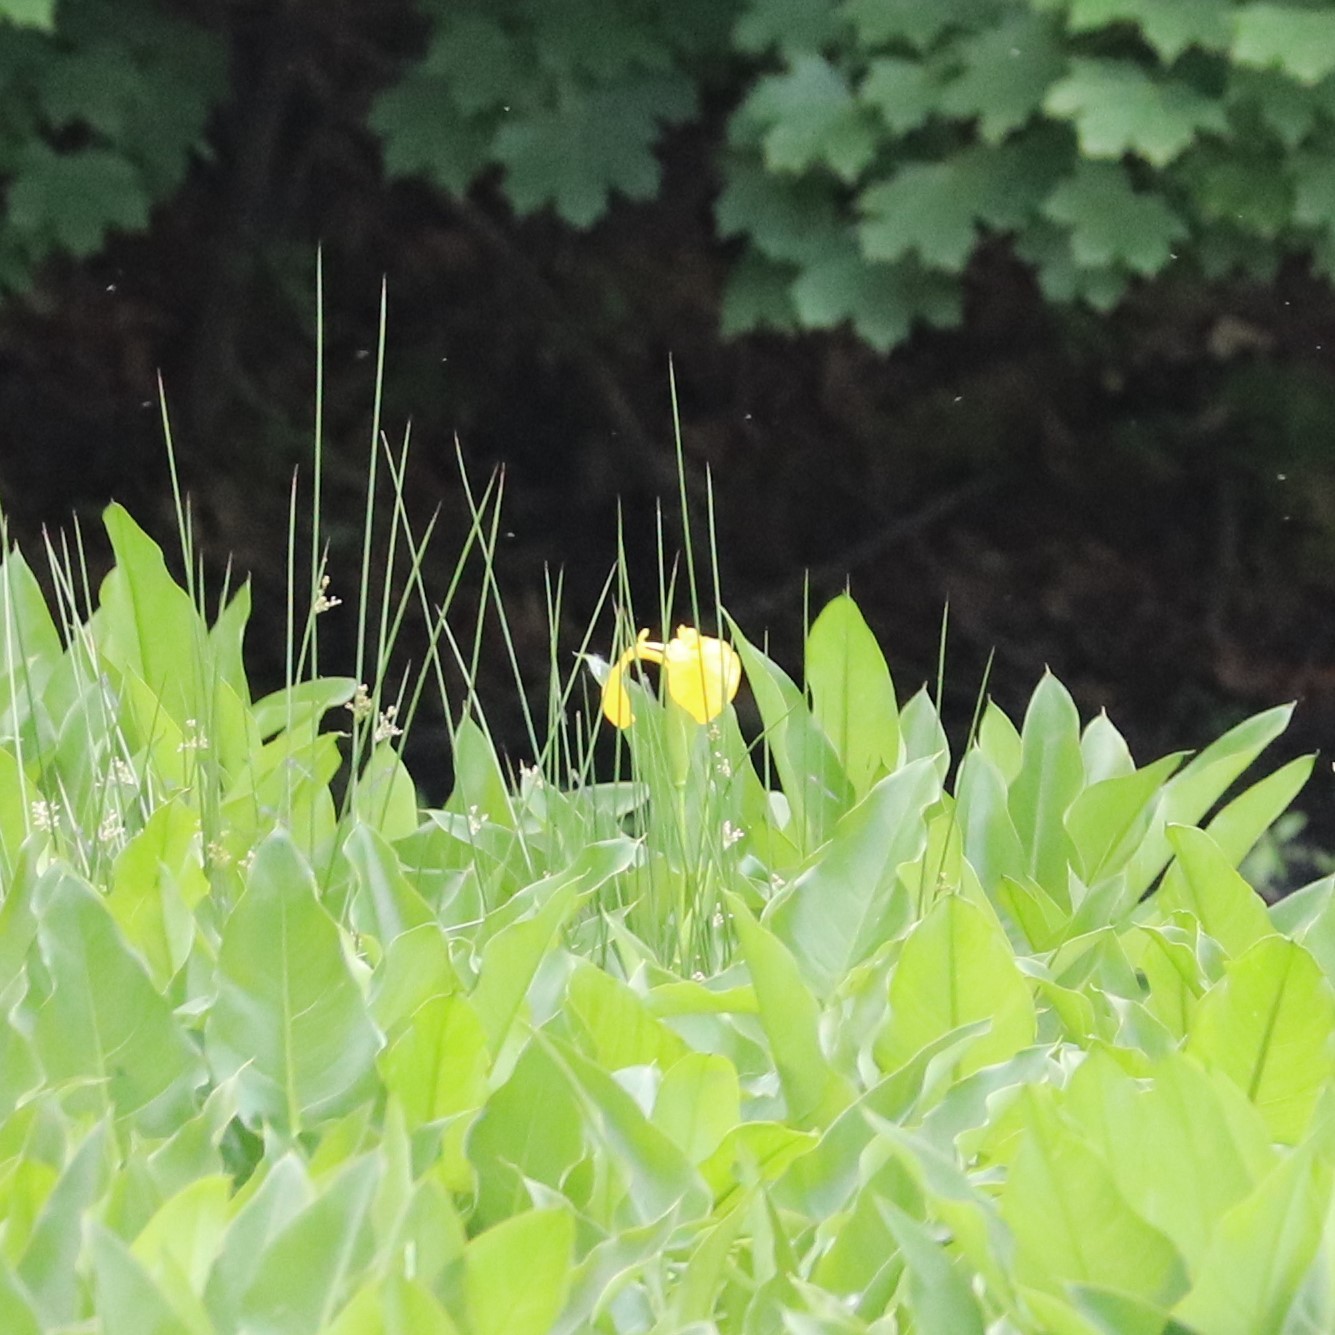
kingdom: Plantae
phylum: Tracheophyta
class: Liliopsida
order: Asparagales
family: Iridaceae
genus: Iris
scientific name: Iris pseudacorus
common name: Yellow flag
